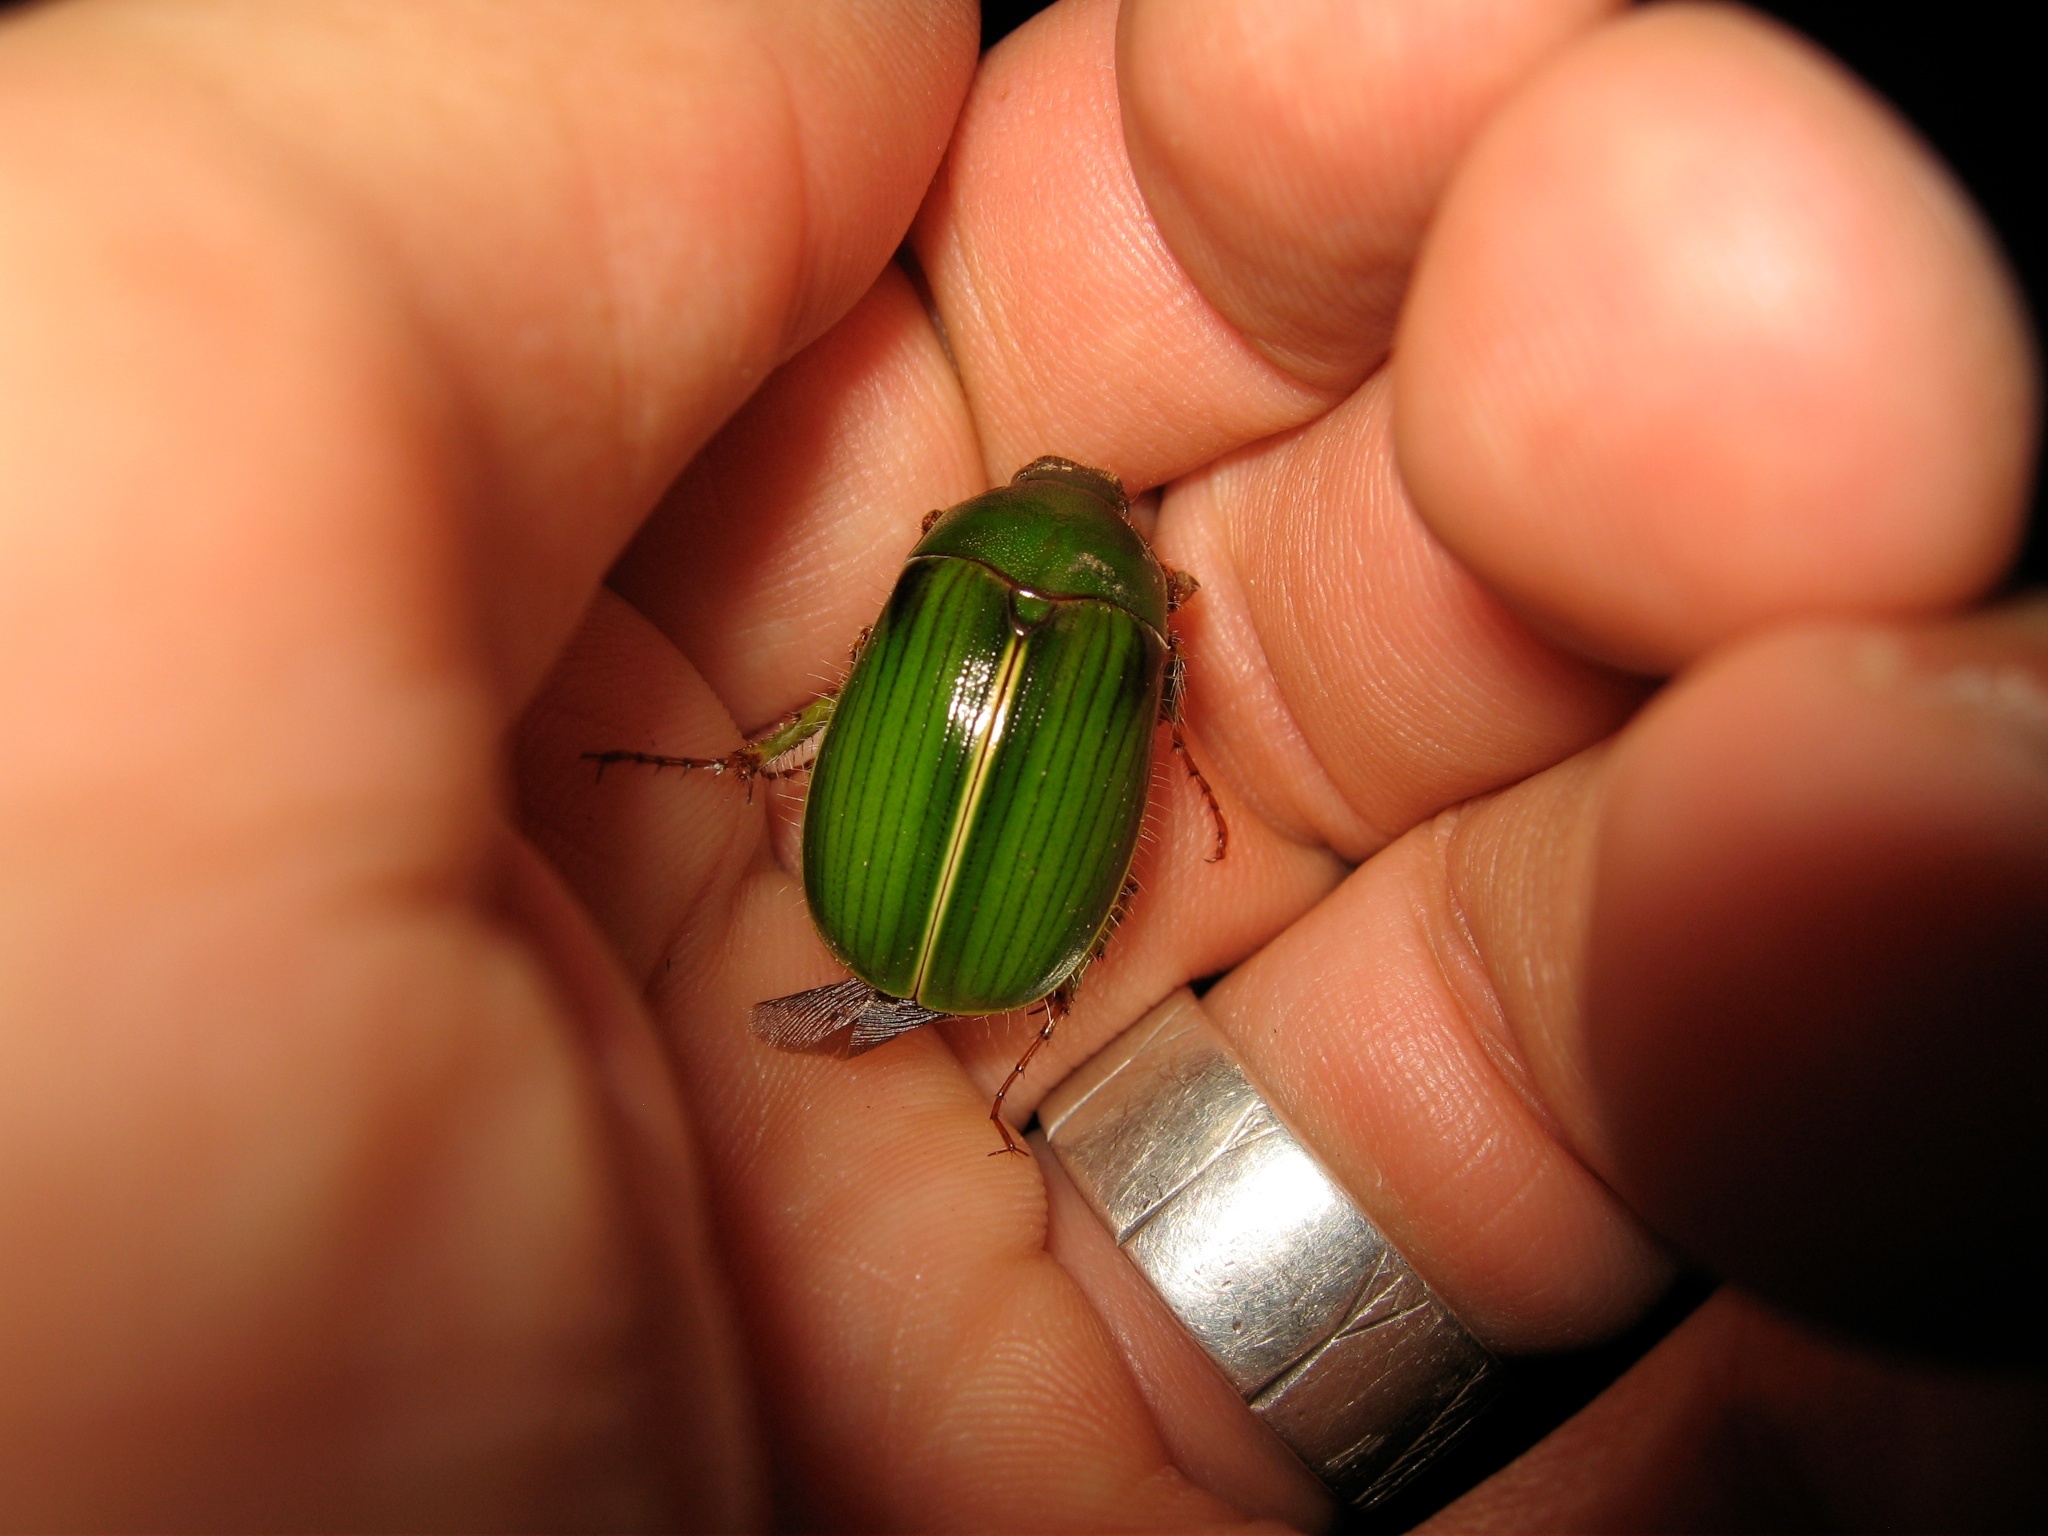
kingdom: Animalia
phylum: Arthropoda
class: Insecta
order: Coleoptera
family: Scarabaeidae
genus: Stethaspis
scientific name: Stethaspis suturalis
